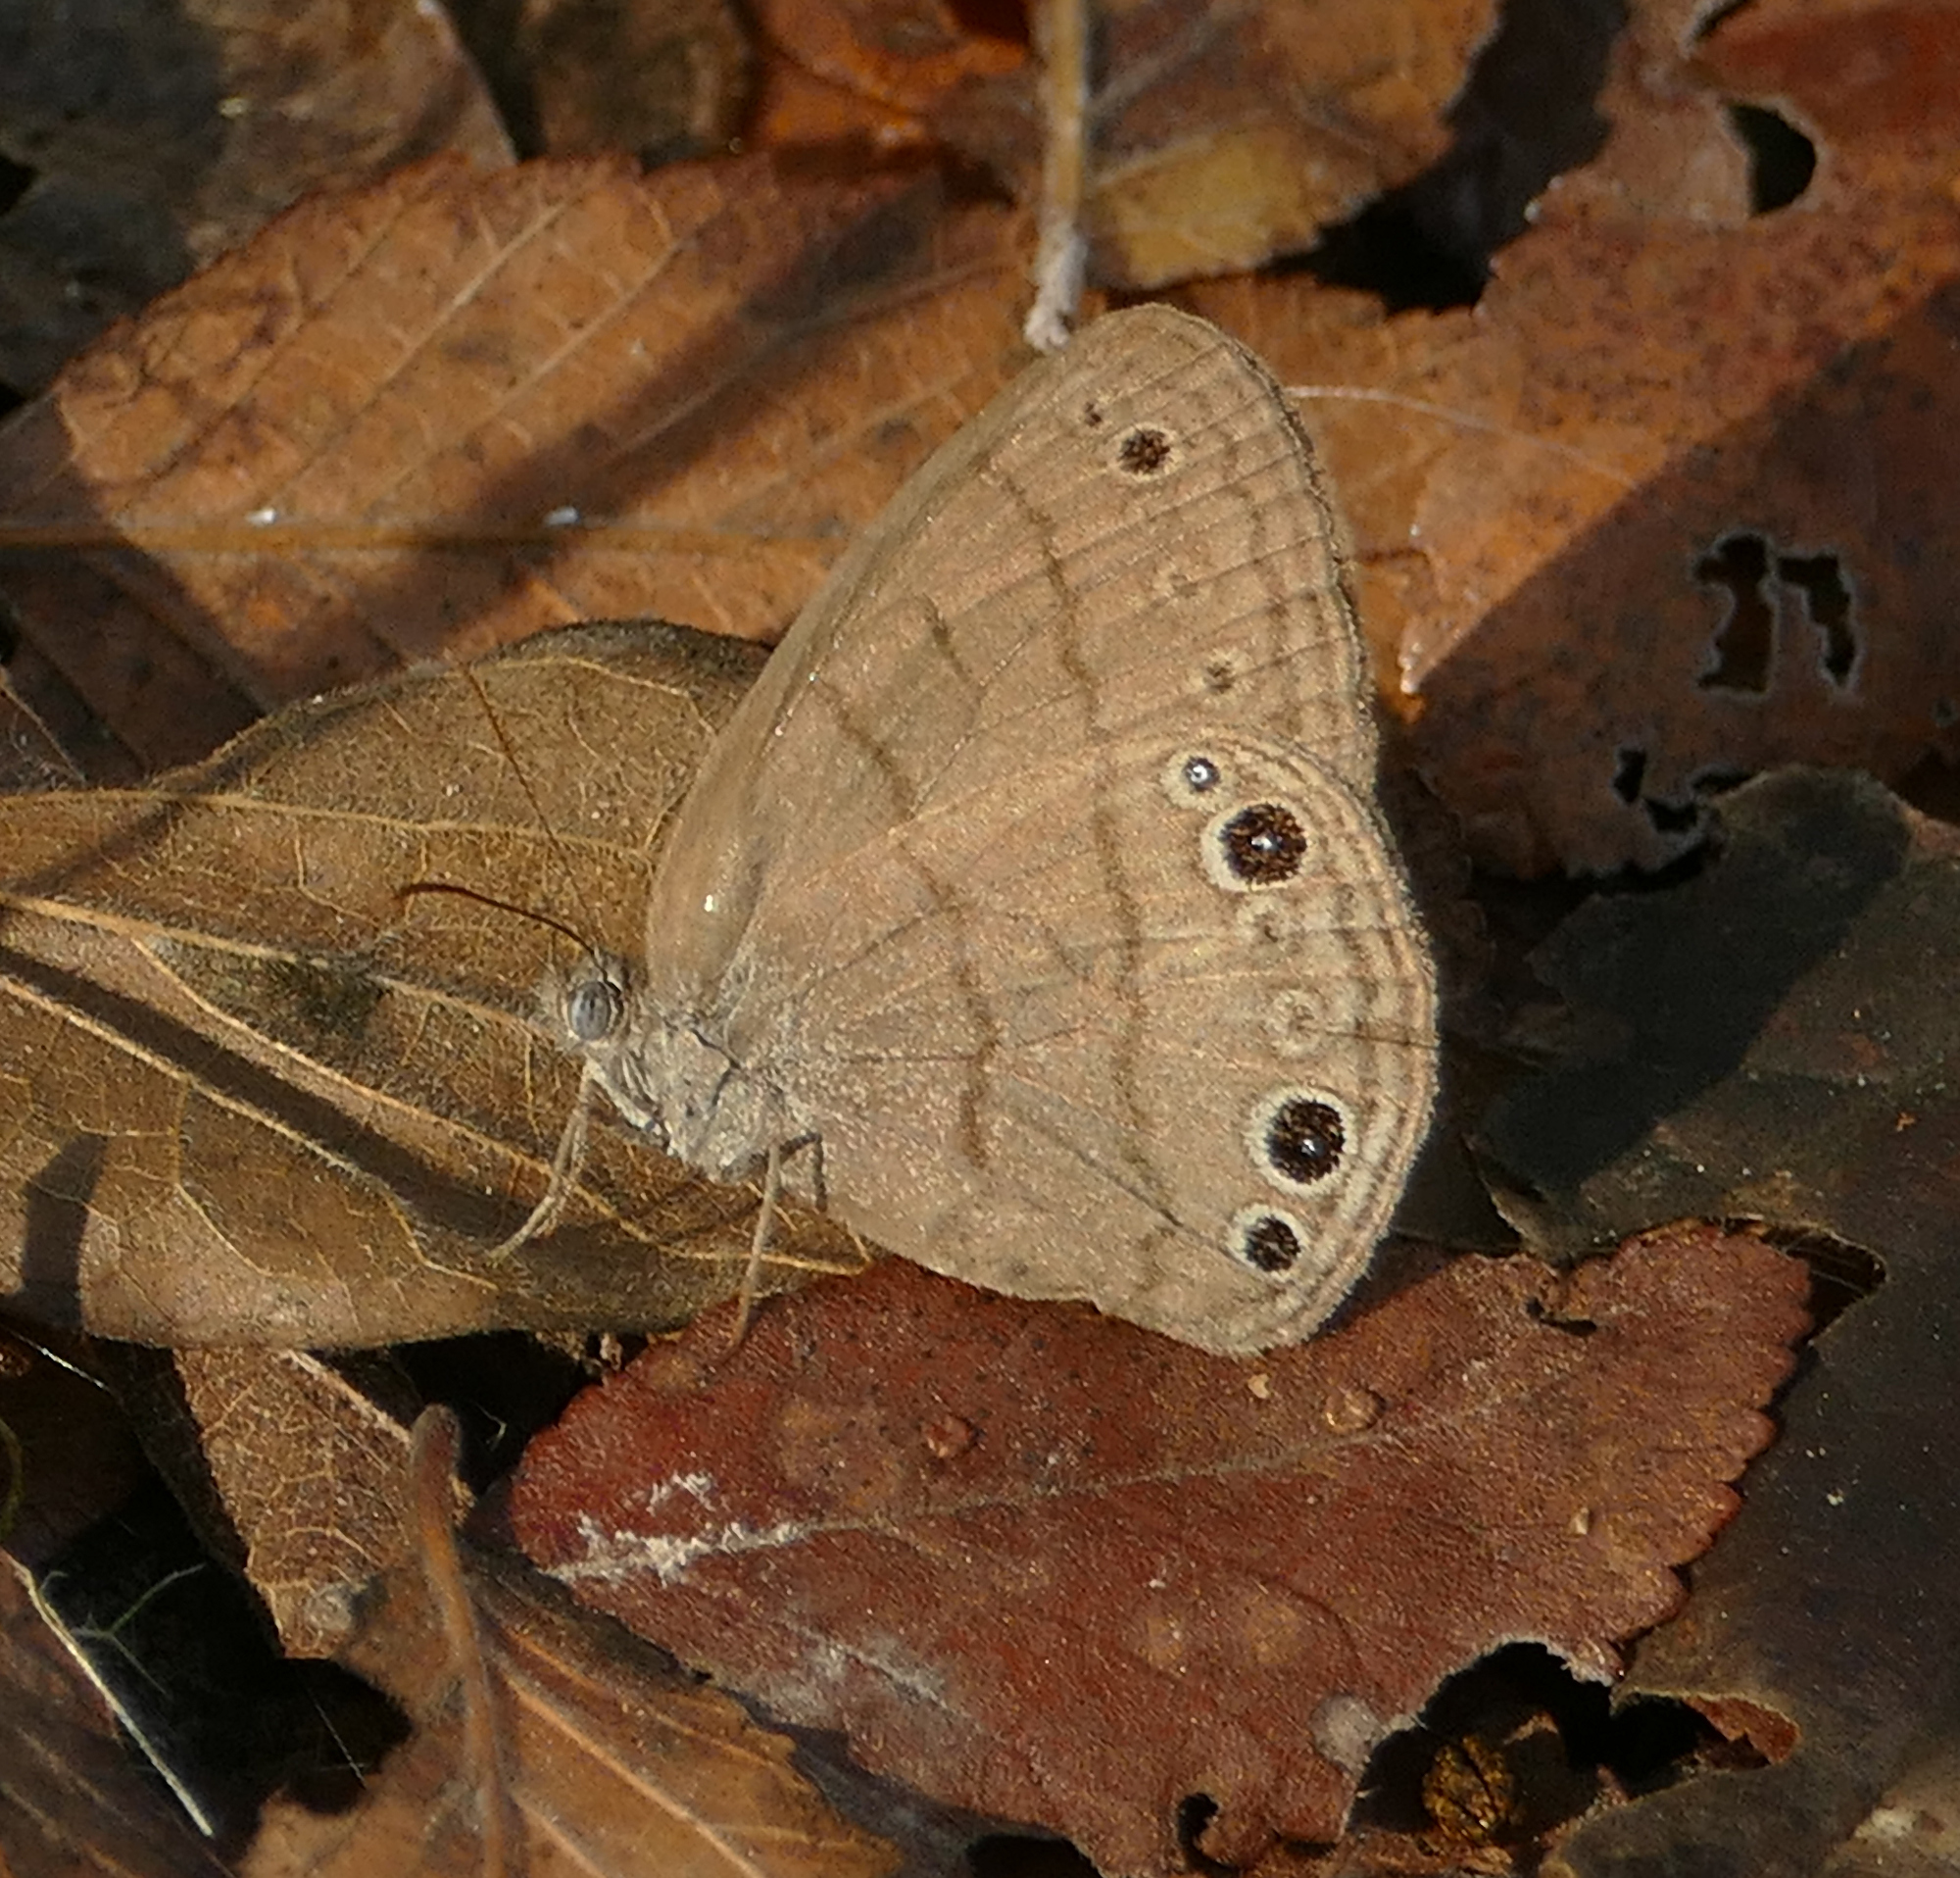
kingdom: Animalia
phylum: Arthropoda
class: Insecta
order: Lepidoptera
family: Nymphalidae
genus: Hermeuptychia
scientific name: Hermeuptychia hermes
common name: Hermes satyr
